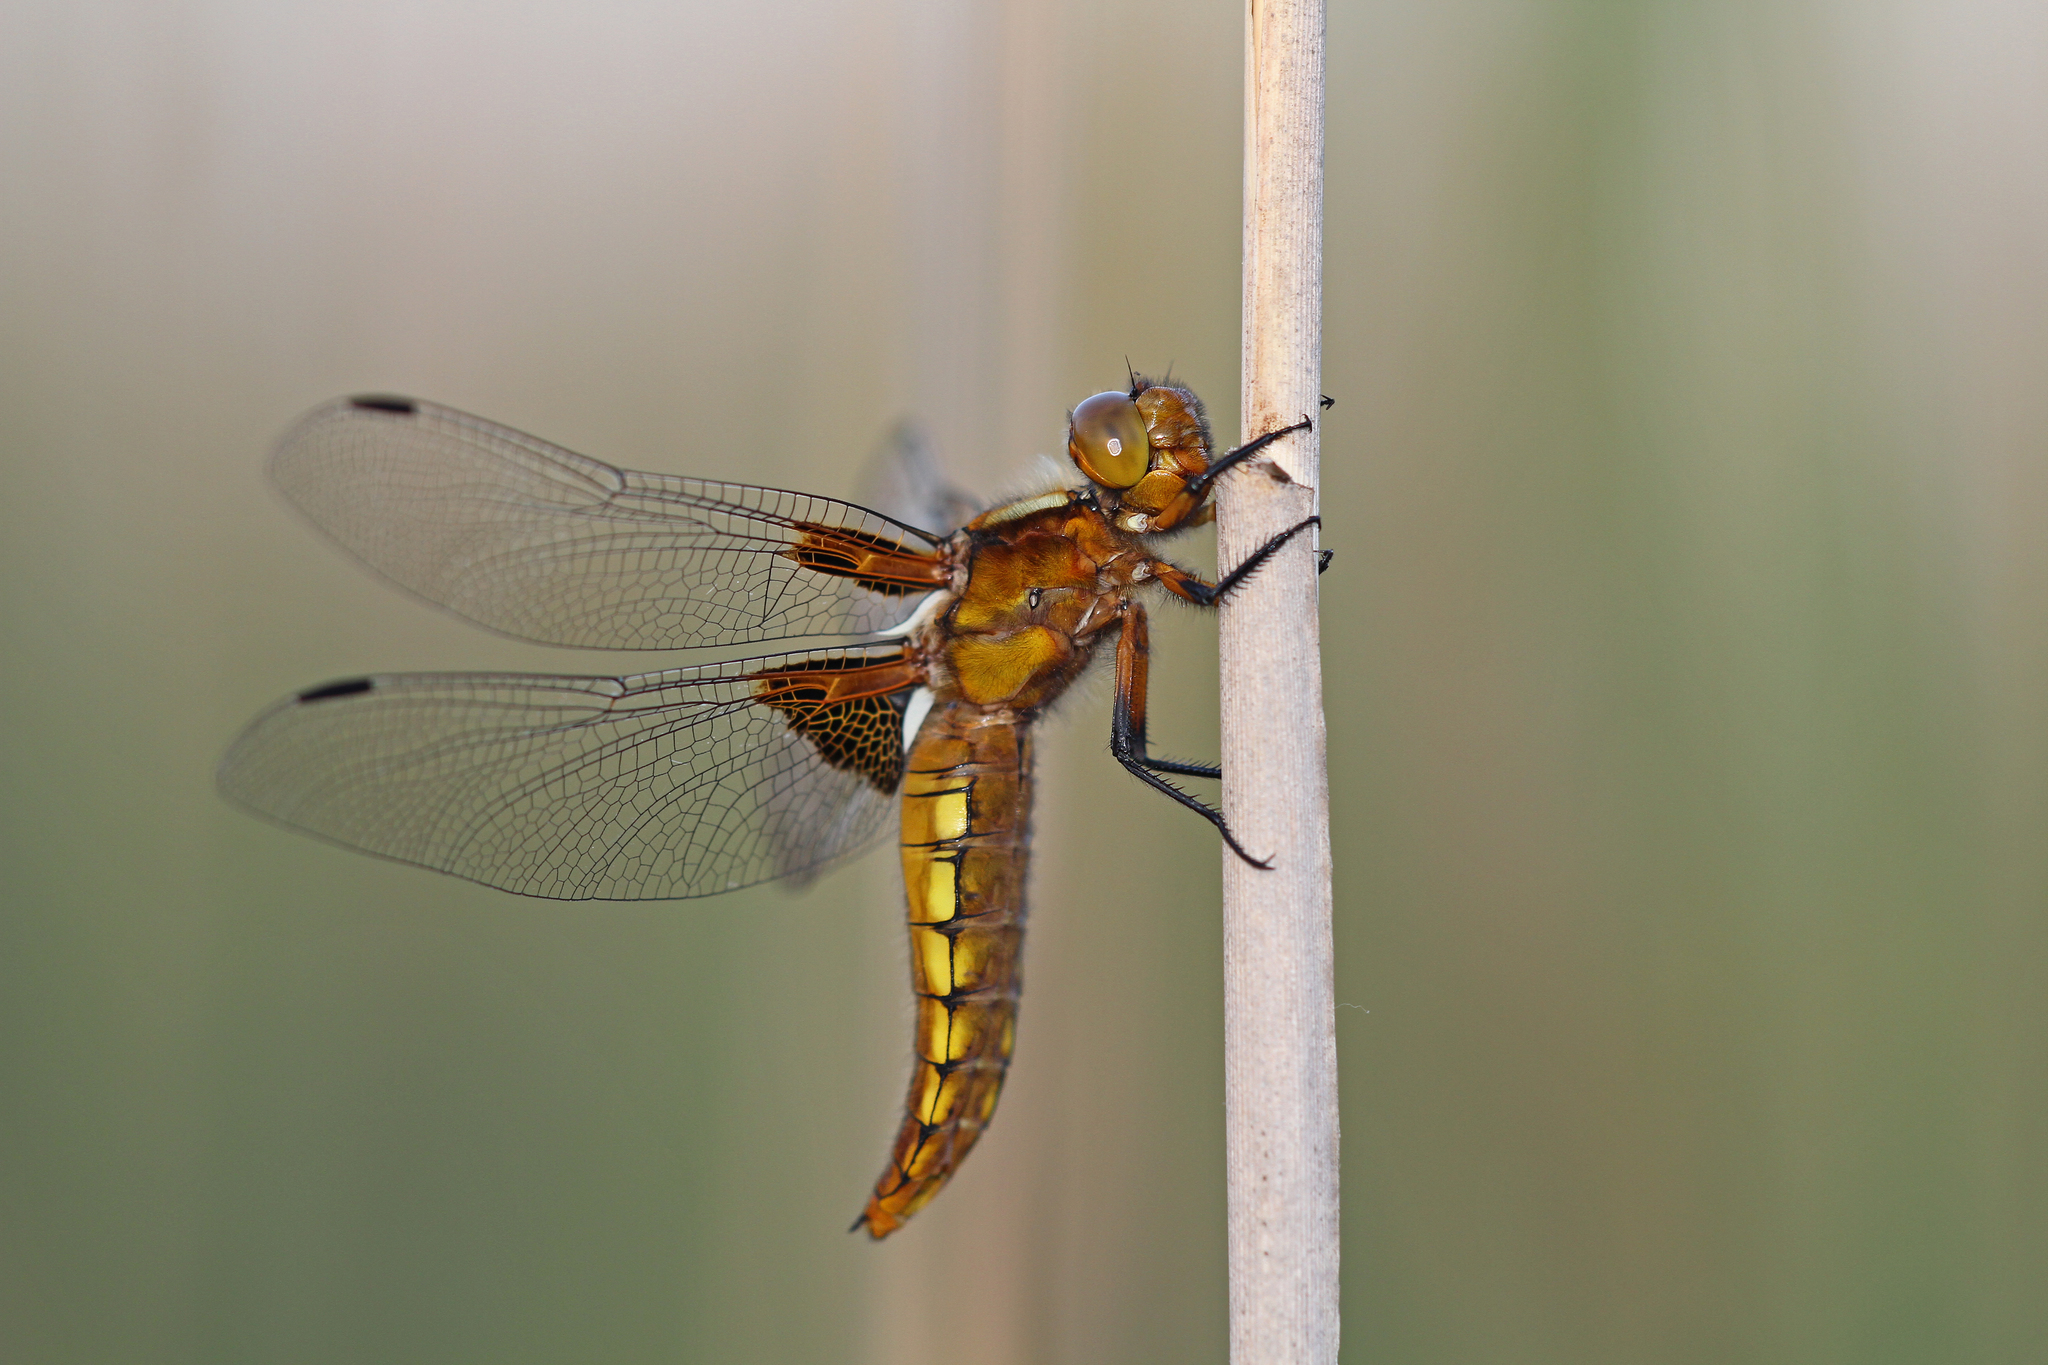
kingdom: Animalia
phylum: Arthropoda
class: Insecta
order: Odonata
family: Libellulidae
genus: Libellula
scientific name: Libellula depressa
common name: Broad-bodied chaser
